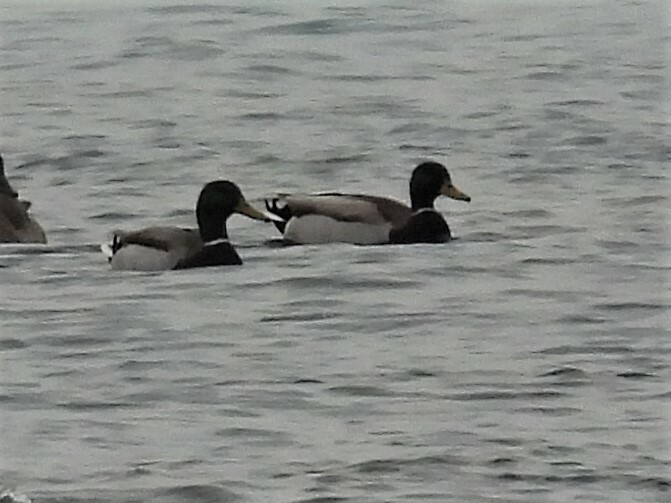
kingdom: Animalia
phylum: Chordata
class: Aves
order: Anseriformes
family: Anatidae
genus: Anas
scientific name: Anas platyrhynchos
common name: Mallard
